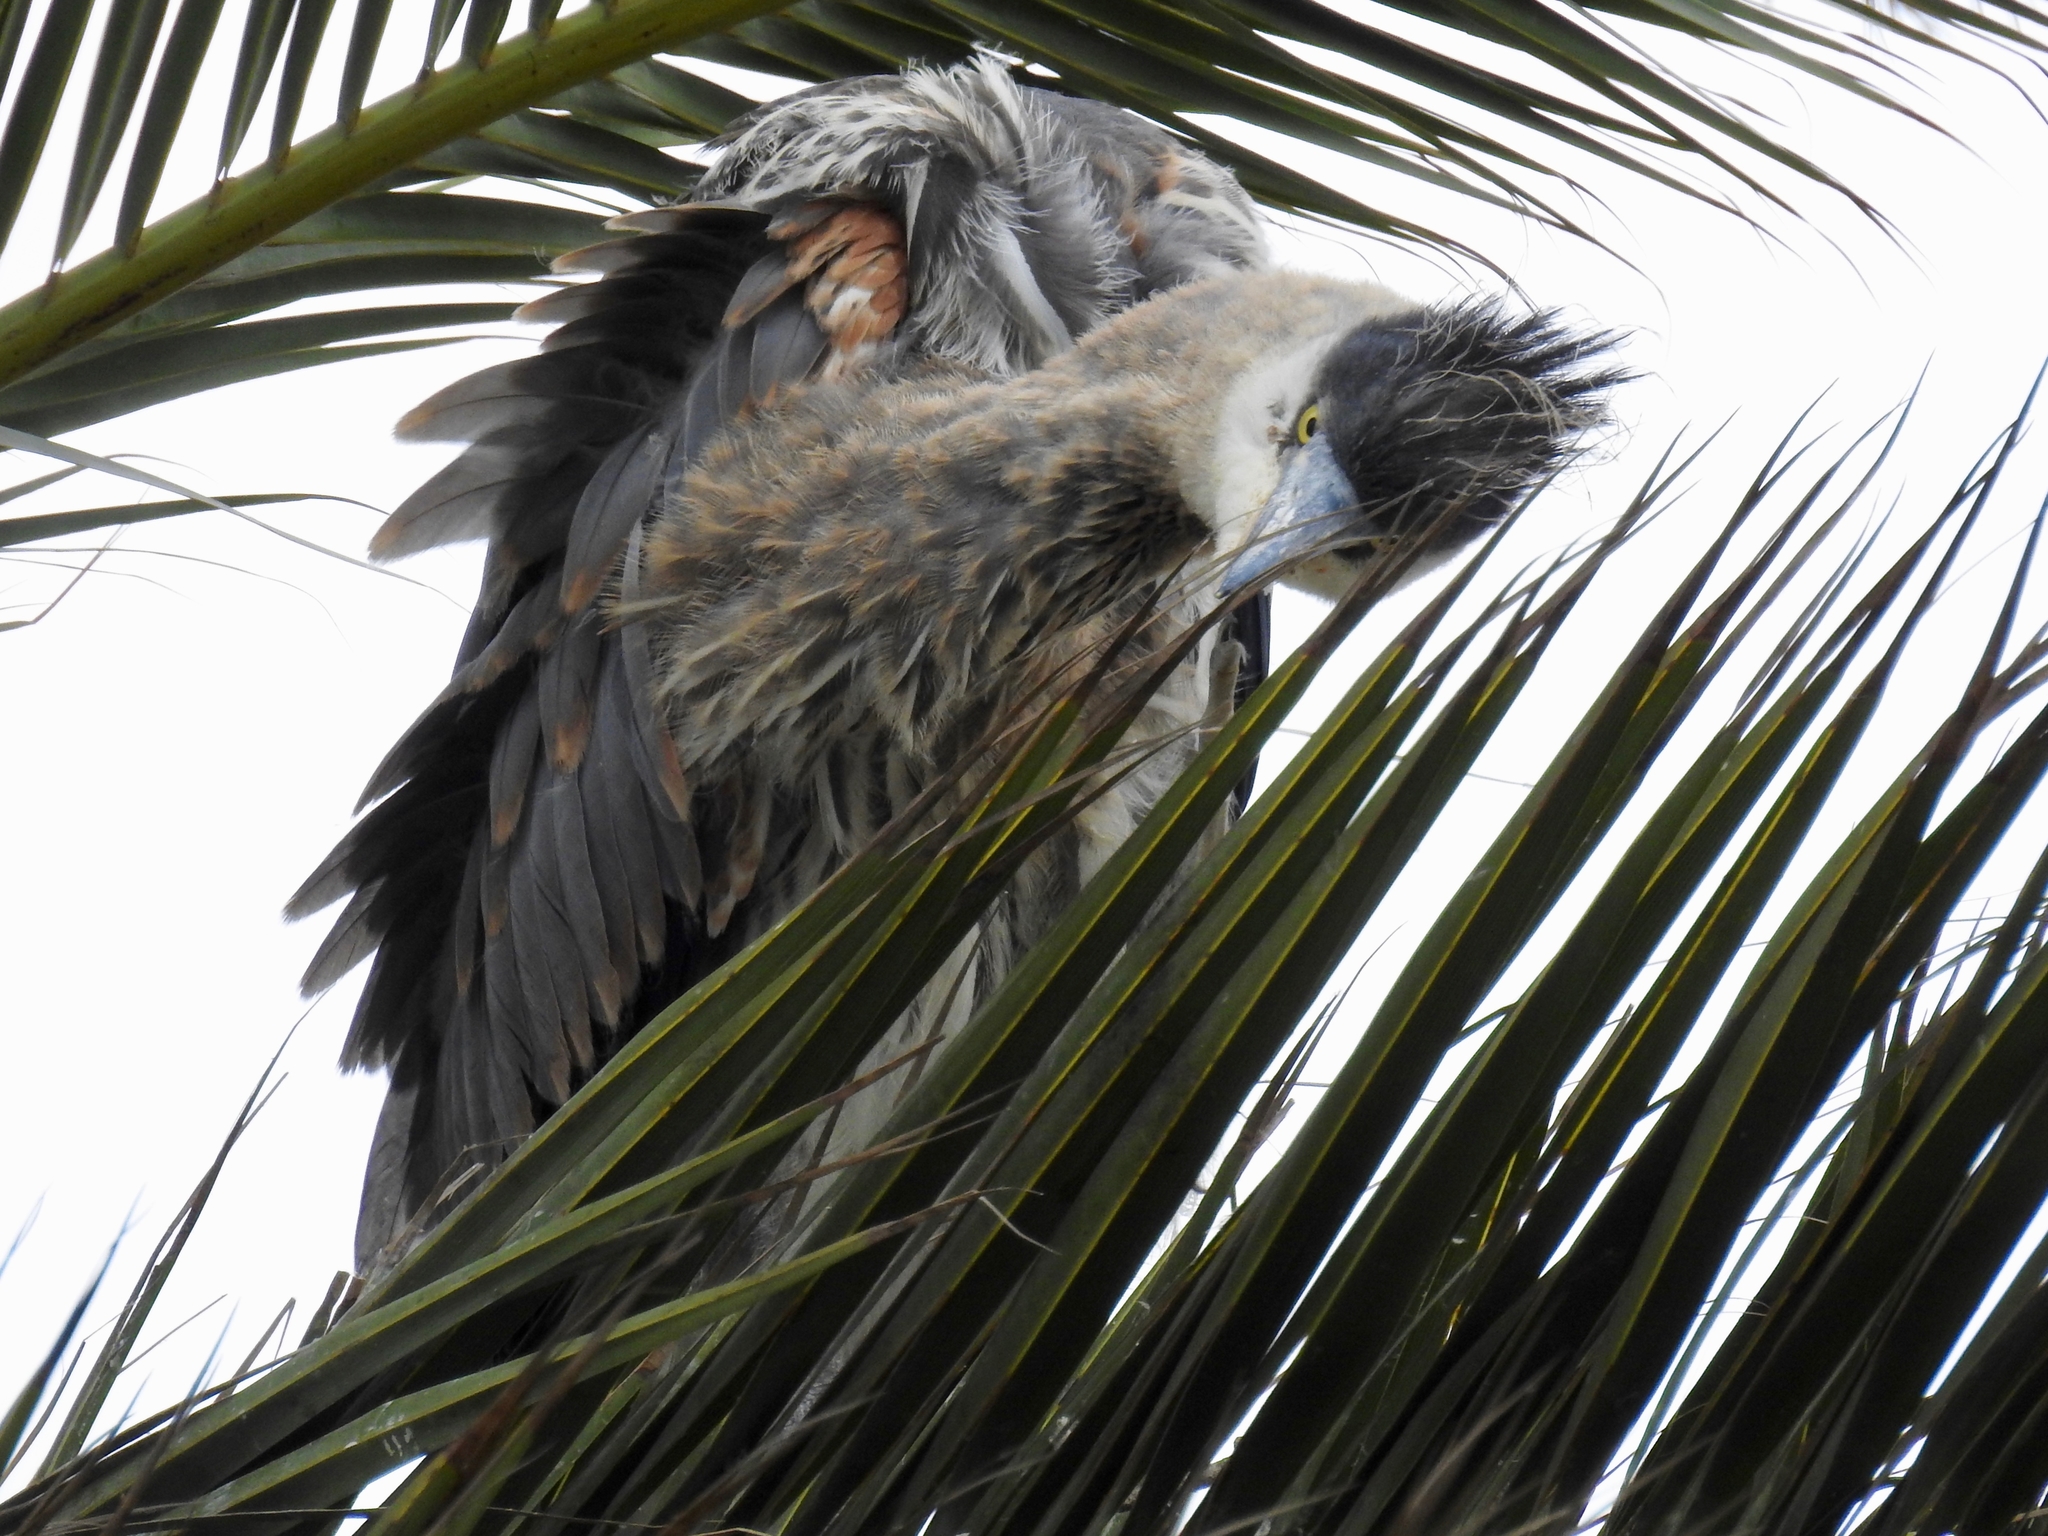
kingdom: Animalia
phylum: Chordata
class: Aves
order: Pelecaniformes
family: Ardeidae
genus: Ardea
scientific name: Ardea herodias
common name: Great blue heron
